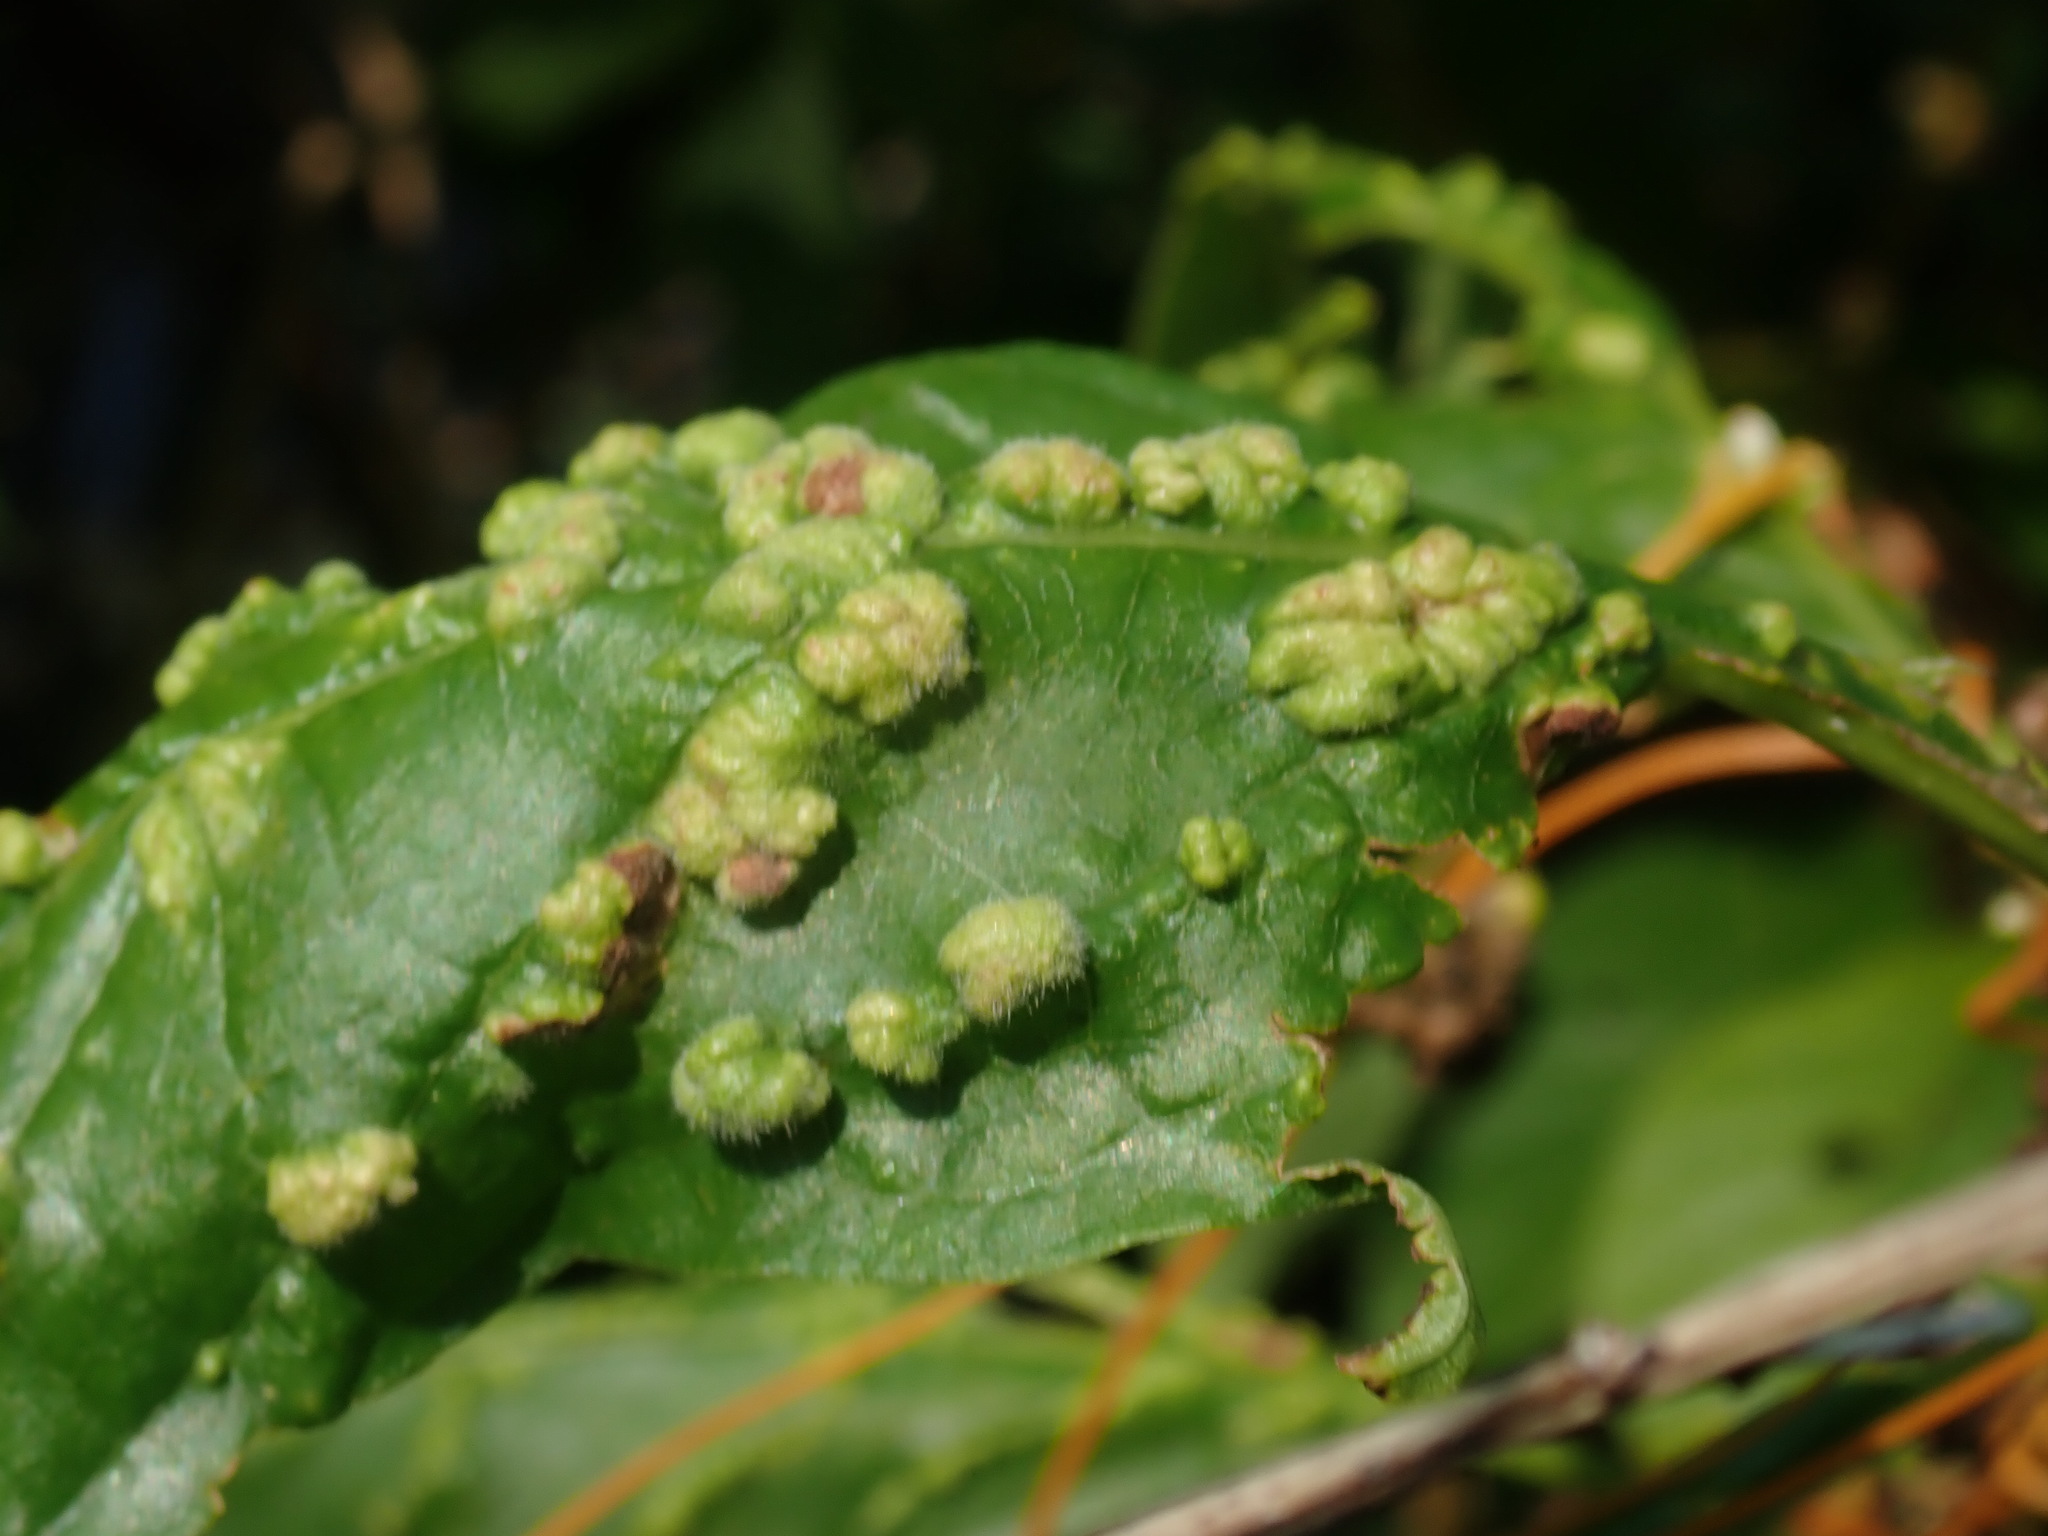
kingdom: Animalia
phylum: Arthropoda
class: Arachnida
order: Trombidiformes
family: Eriophyidae
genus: Aceria
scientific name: Aceria
